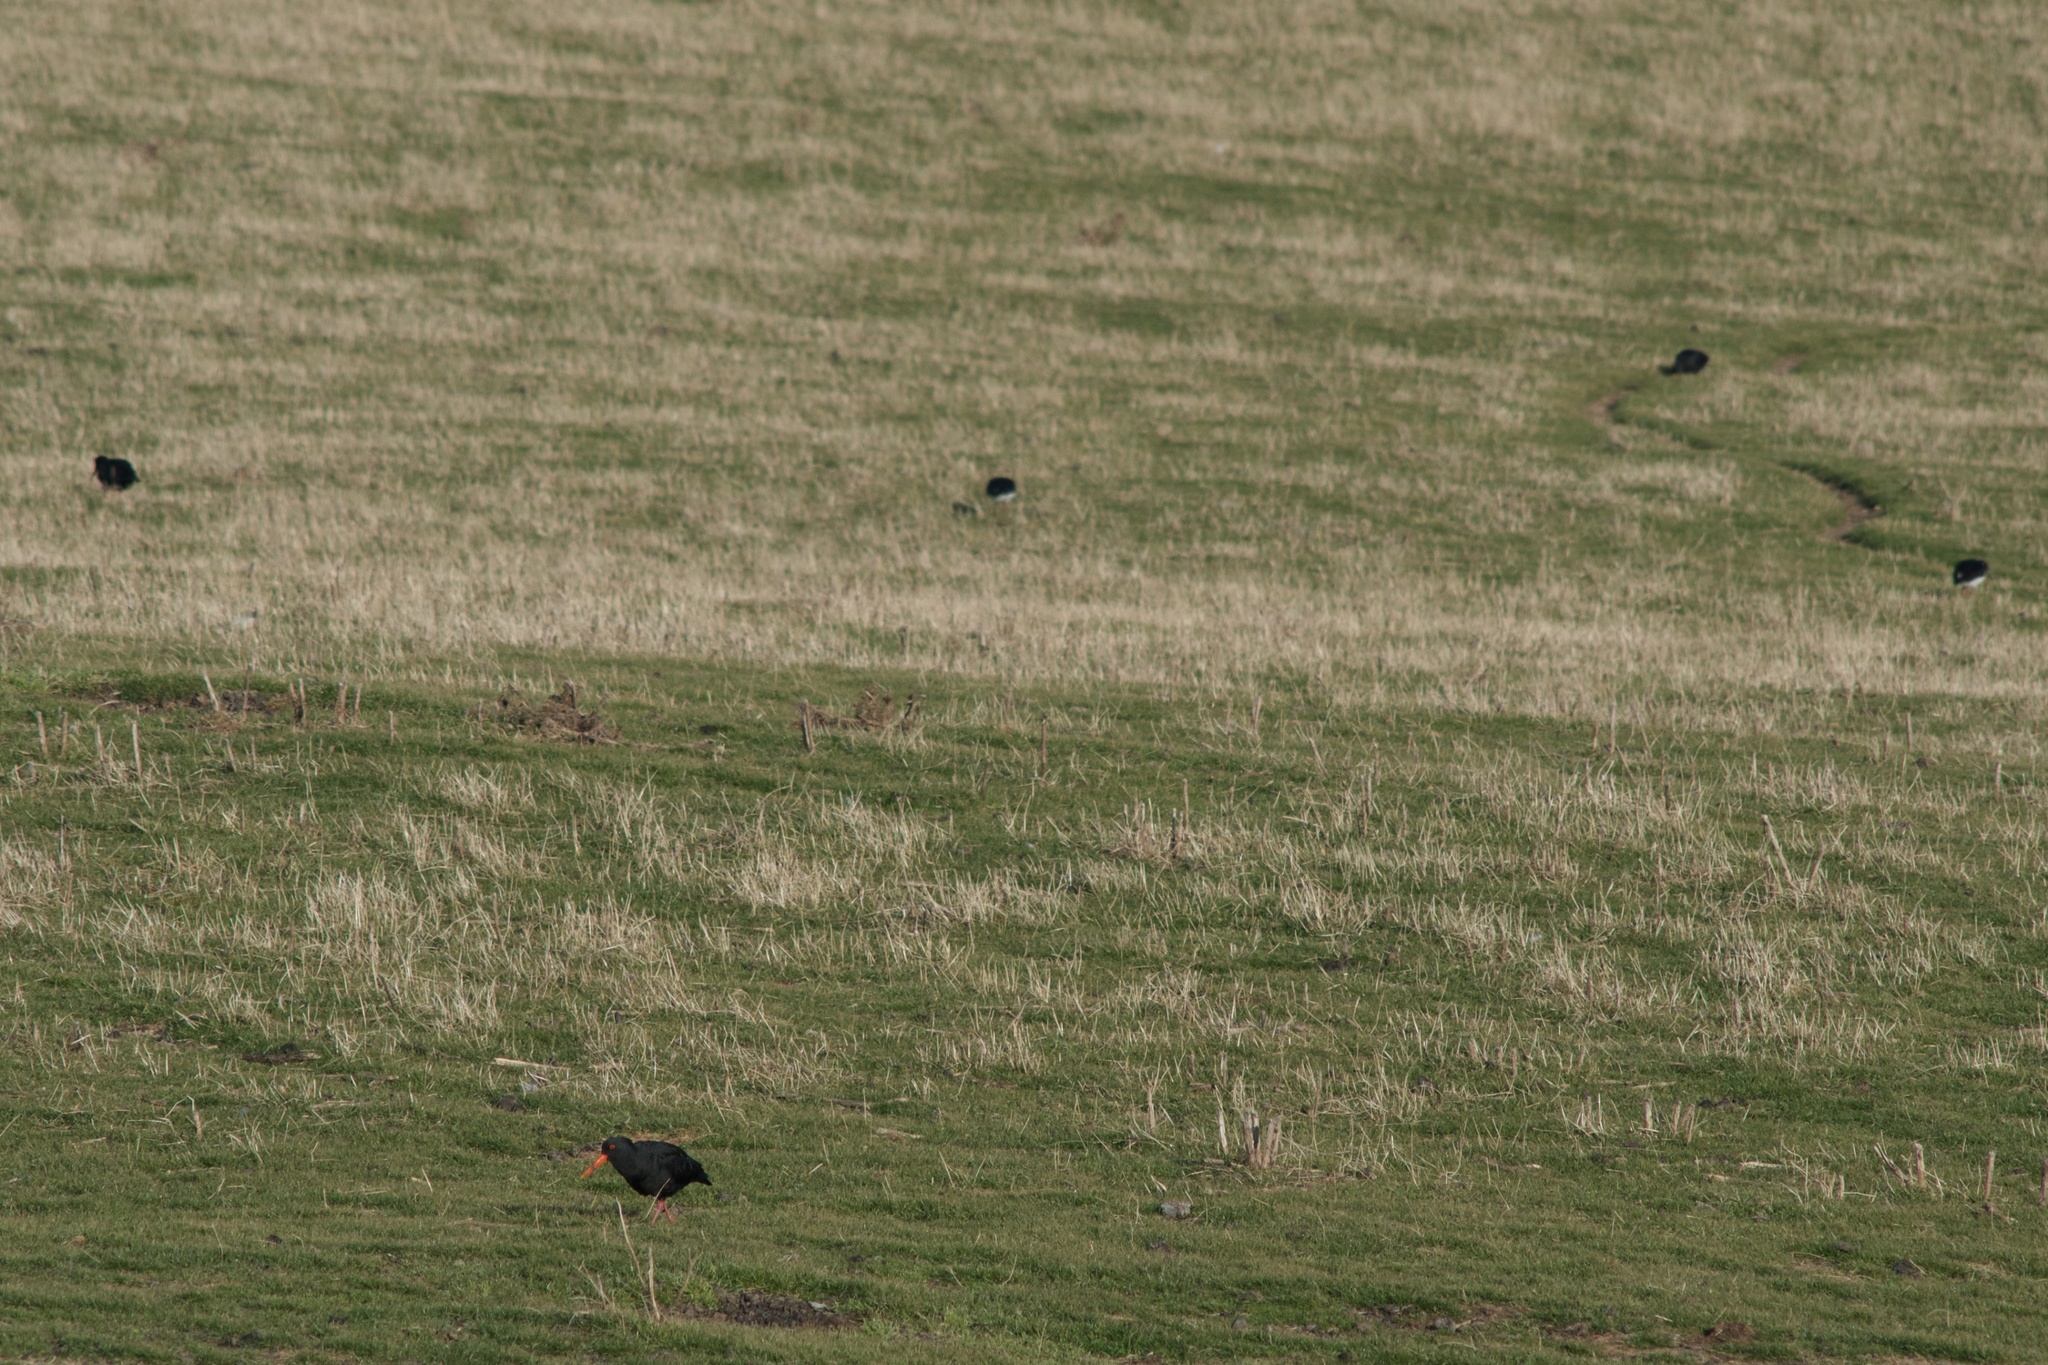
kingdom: Animalia
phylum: Chordata
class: Aves
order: Charadriiformes
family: Haematopodidae
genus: Haematopus
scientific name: Haematopus unicolor
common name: Variable oystercatcher
